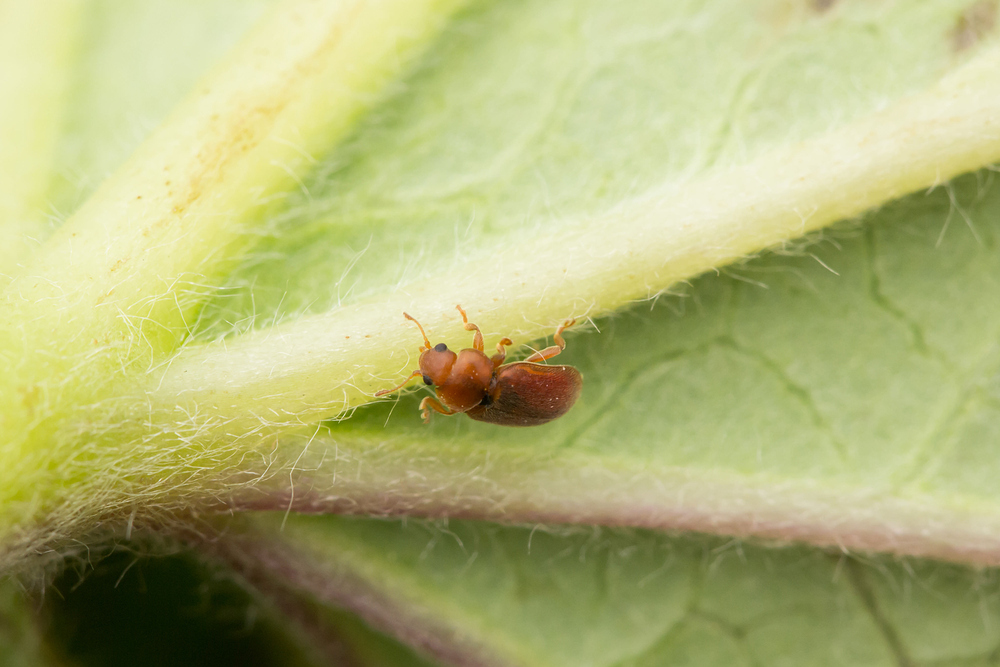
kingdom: Animalia
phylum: Arthropoda
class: Insecta
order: Coleoptera
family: Coccinellidae
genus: Coccidula
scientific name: Coccidula rufa
